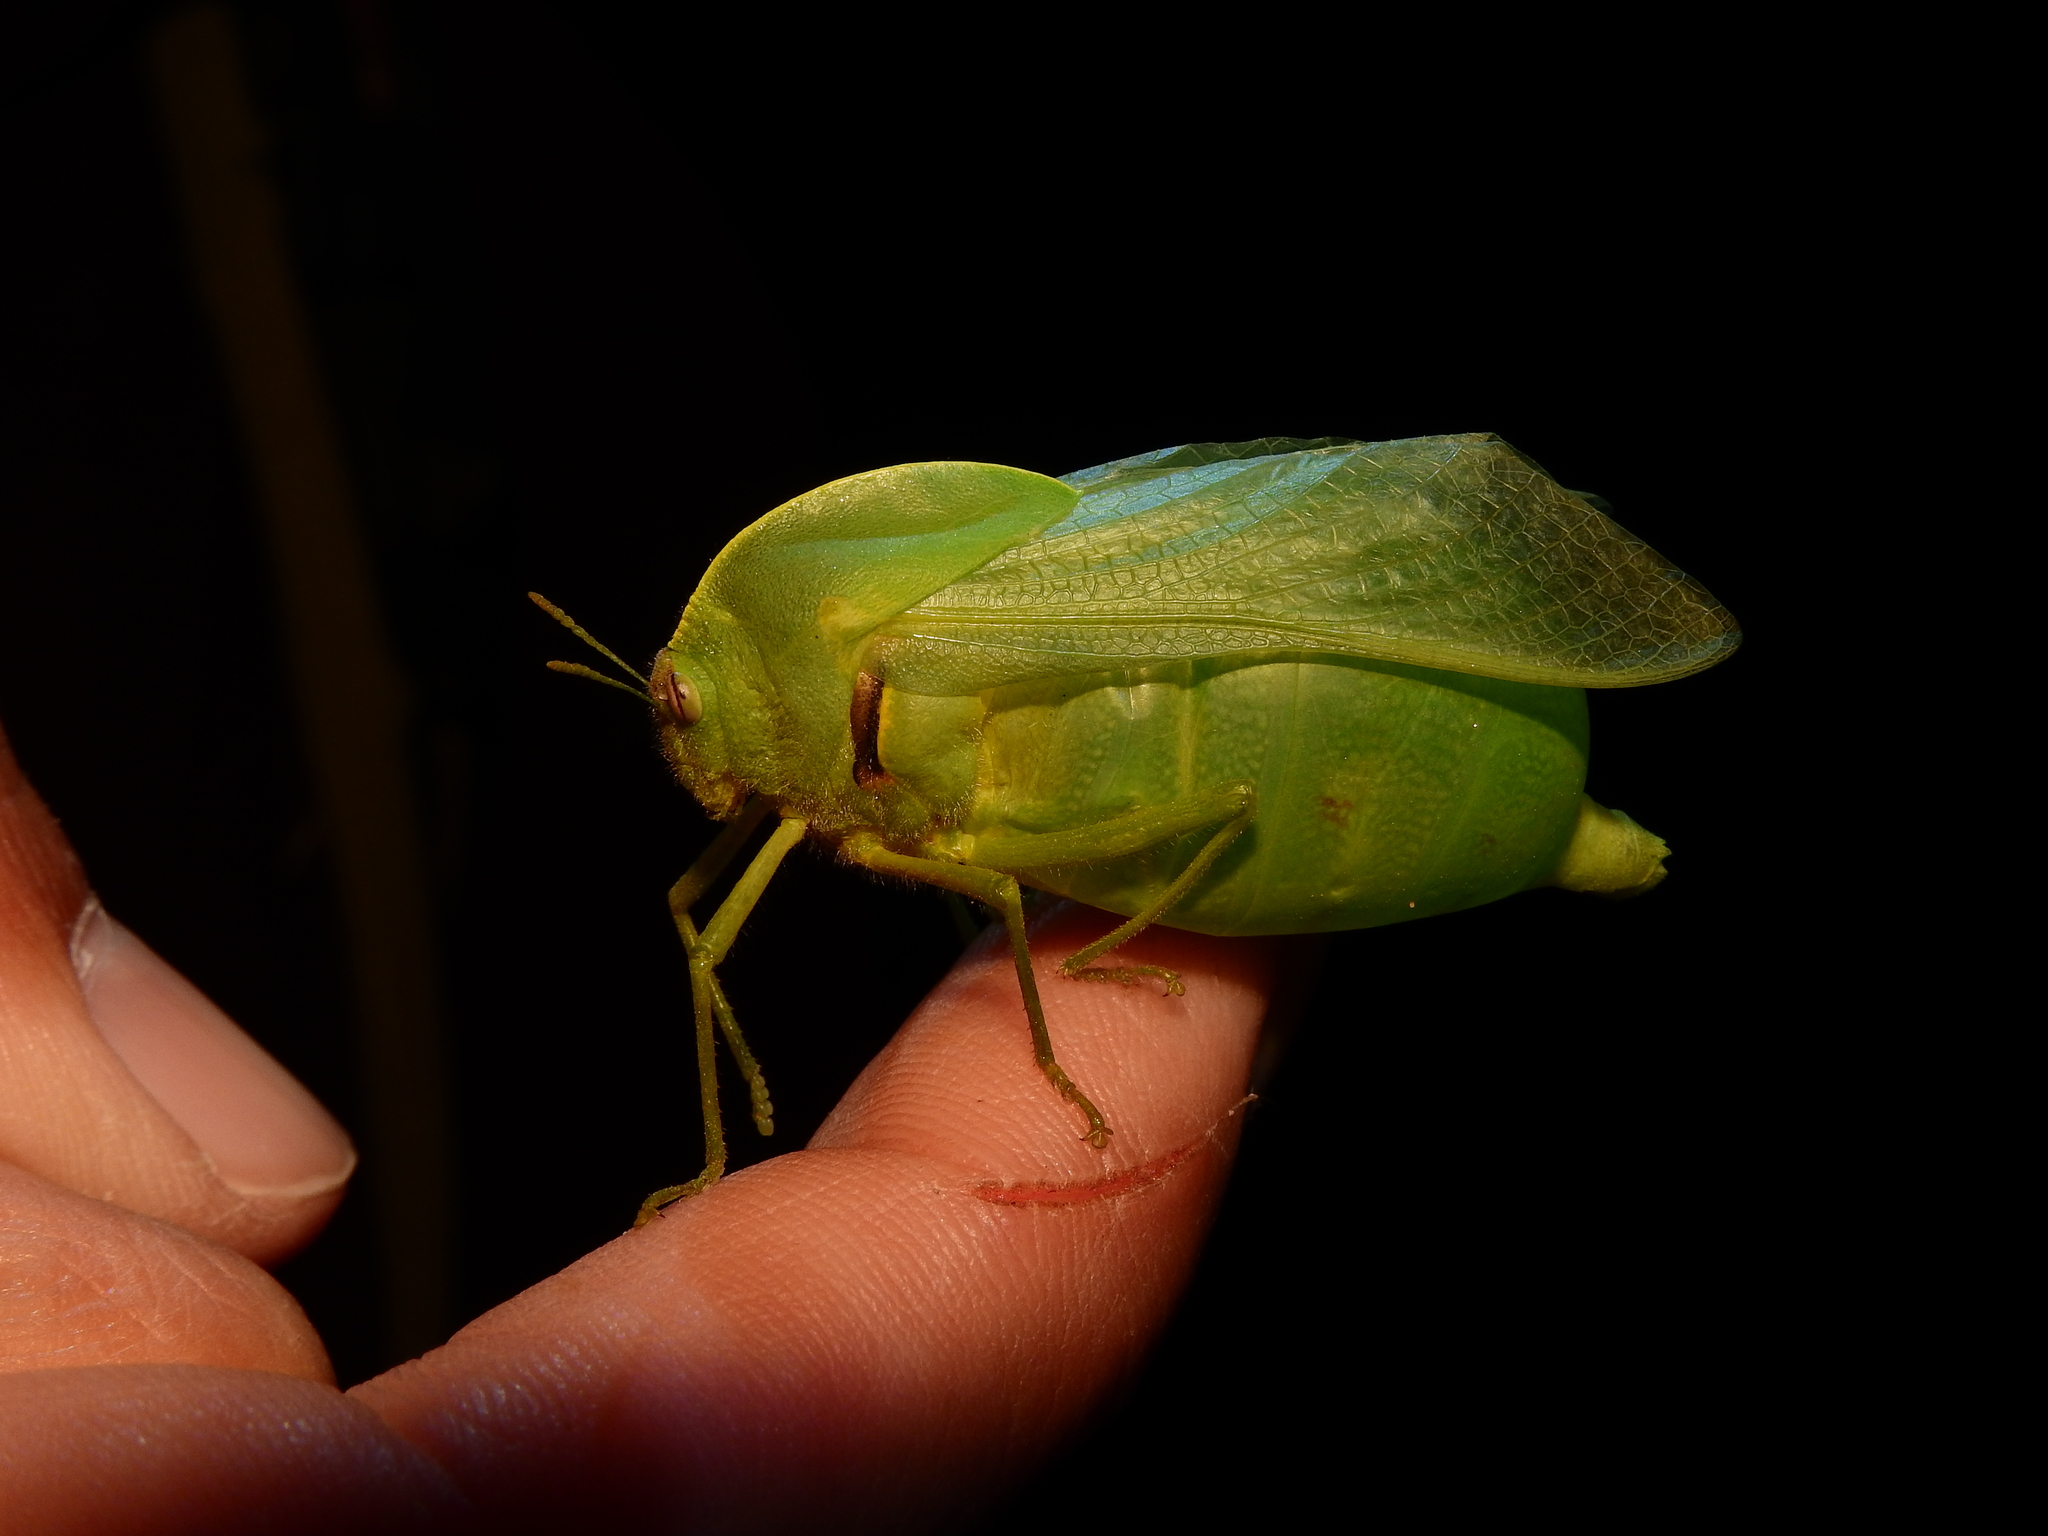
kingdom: Animalia
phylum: Arthropoda
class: Insecta
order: Orthoptera
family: Pneumoridae
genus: Bullacris
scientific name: Bullacris unicolor
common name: Bladder grasshopper
